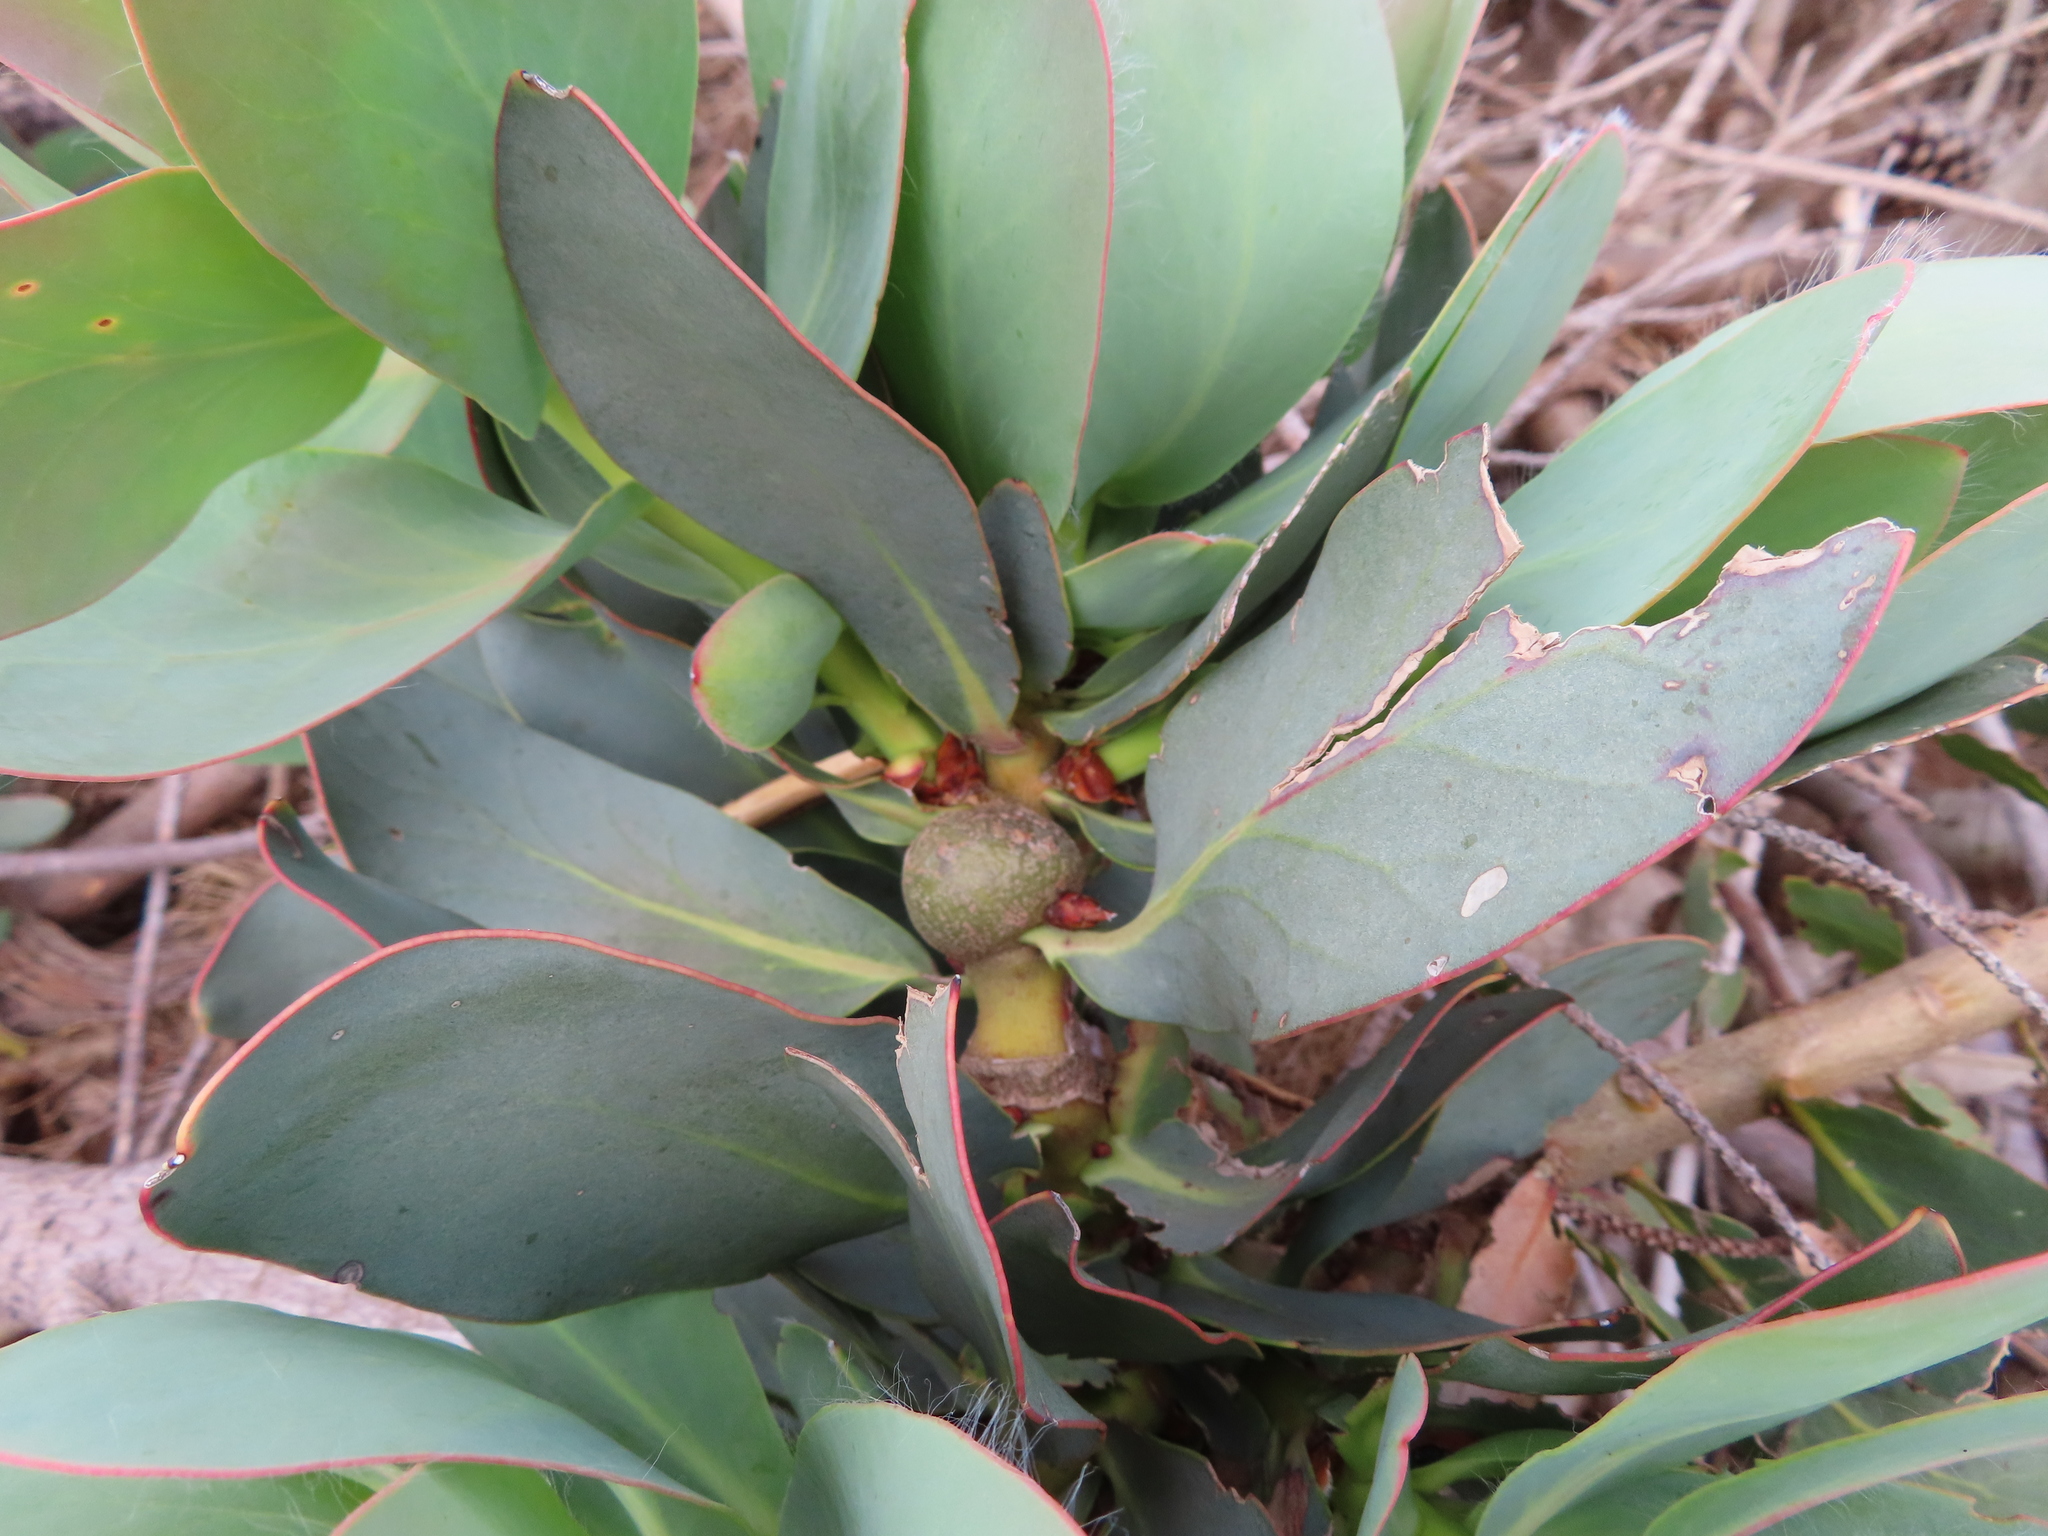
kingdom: Plantae
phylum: Tracheophyta
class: Magnoliopsida
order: Proteales
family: Proteaceae
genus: Protea
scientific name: Protea grandiceps
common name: Red sugarbush
